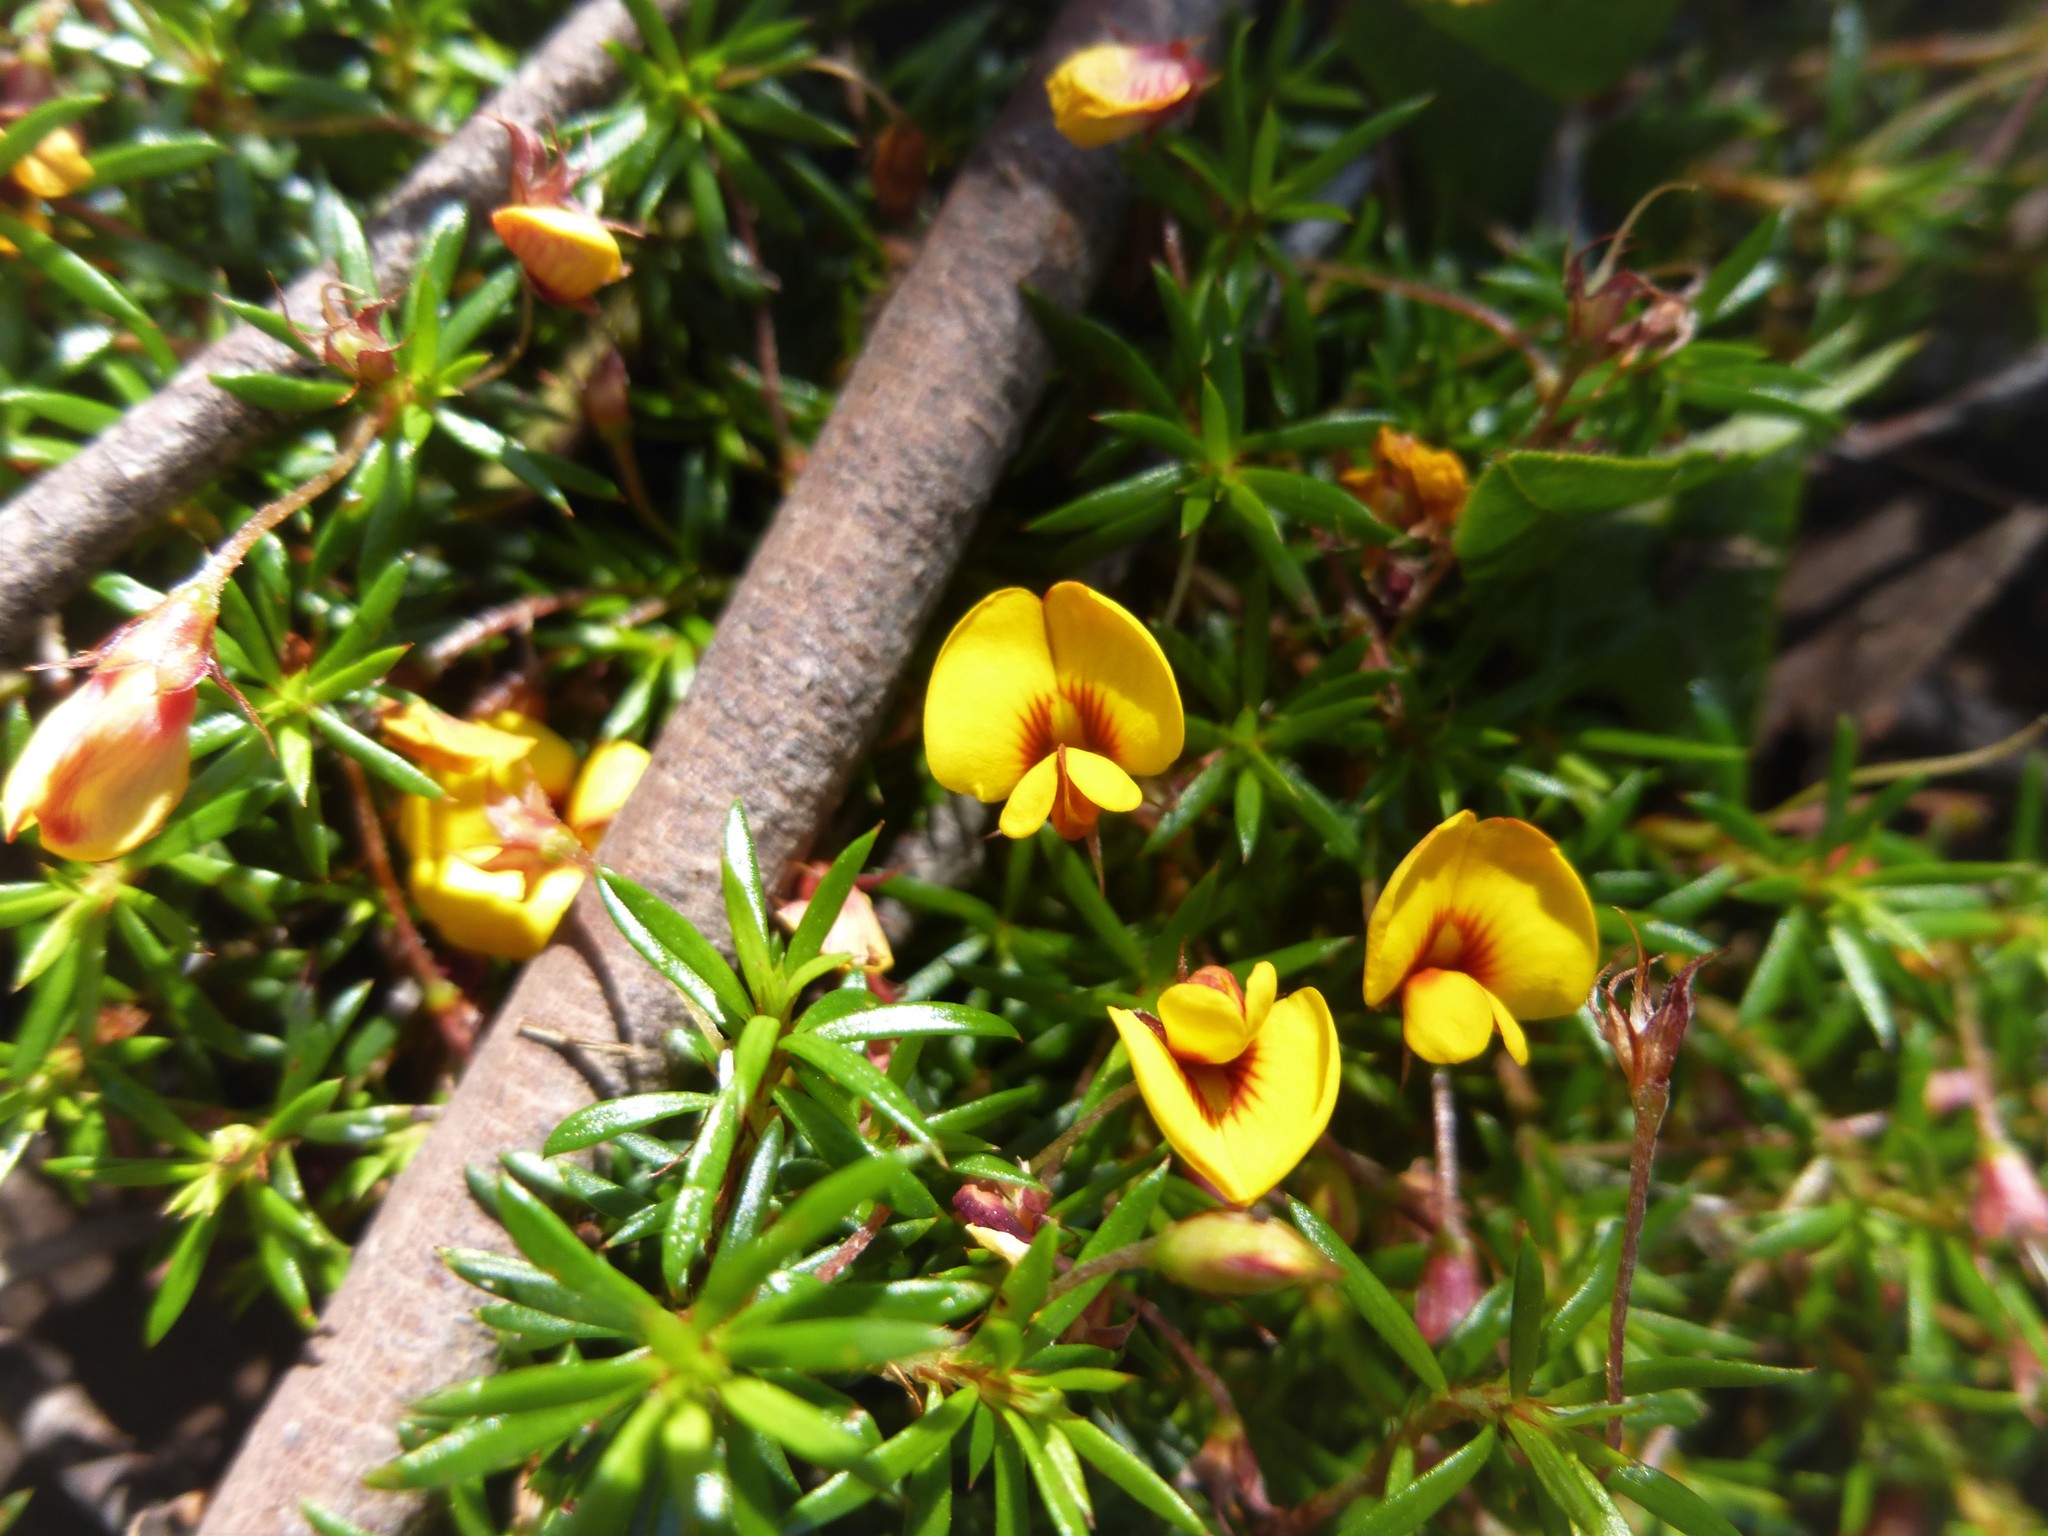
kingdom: Plantae
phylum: Tracheophyta
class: Magnoliopsida
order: Fabales
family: Fabaceae
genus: Pultenaea
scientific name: Pultenaea pedunculata
